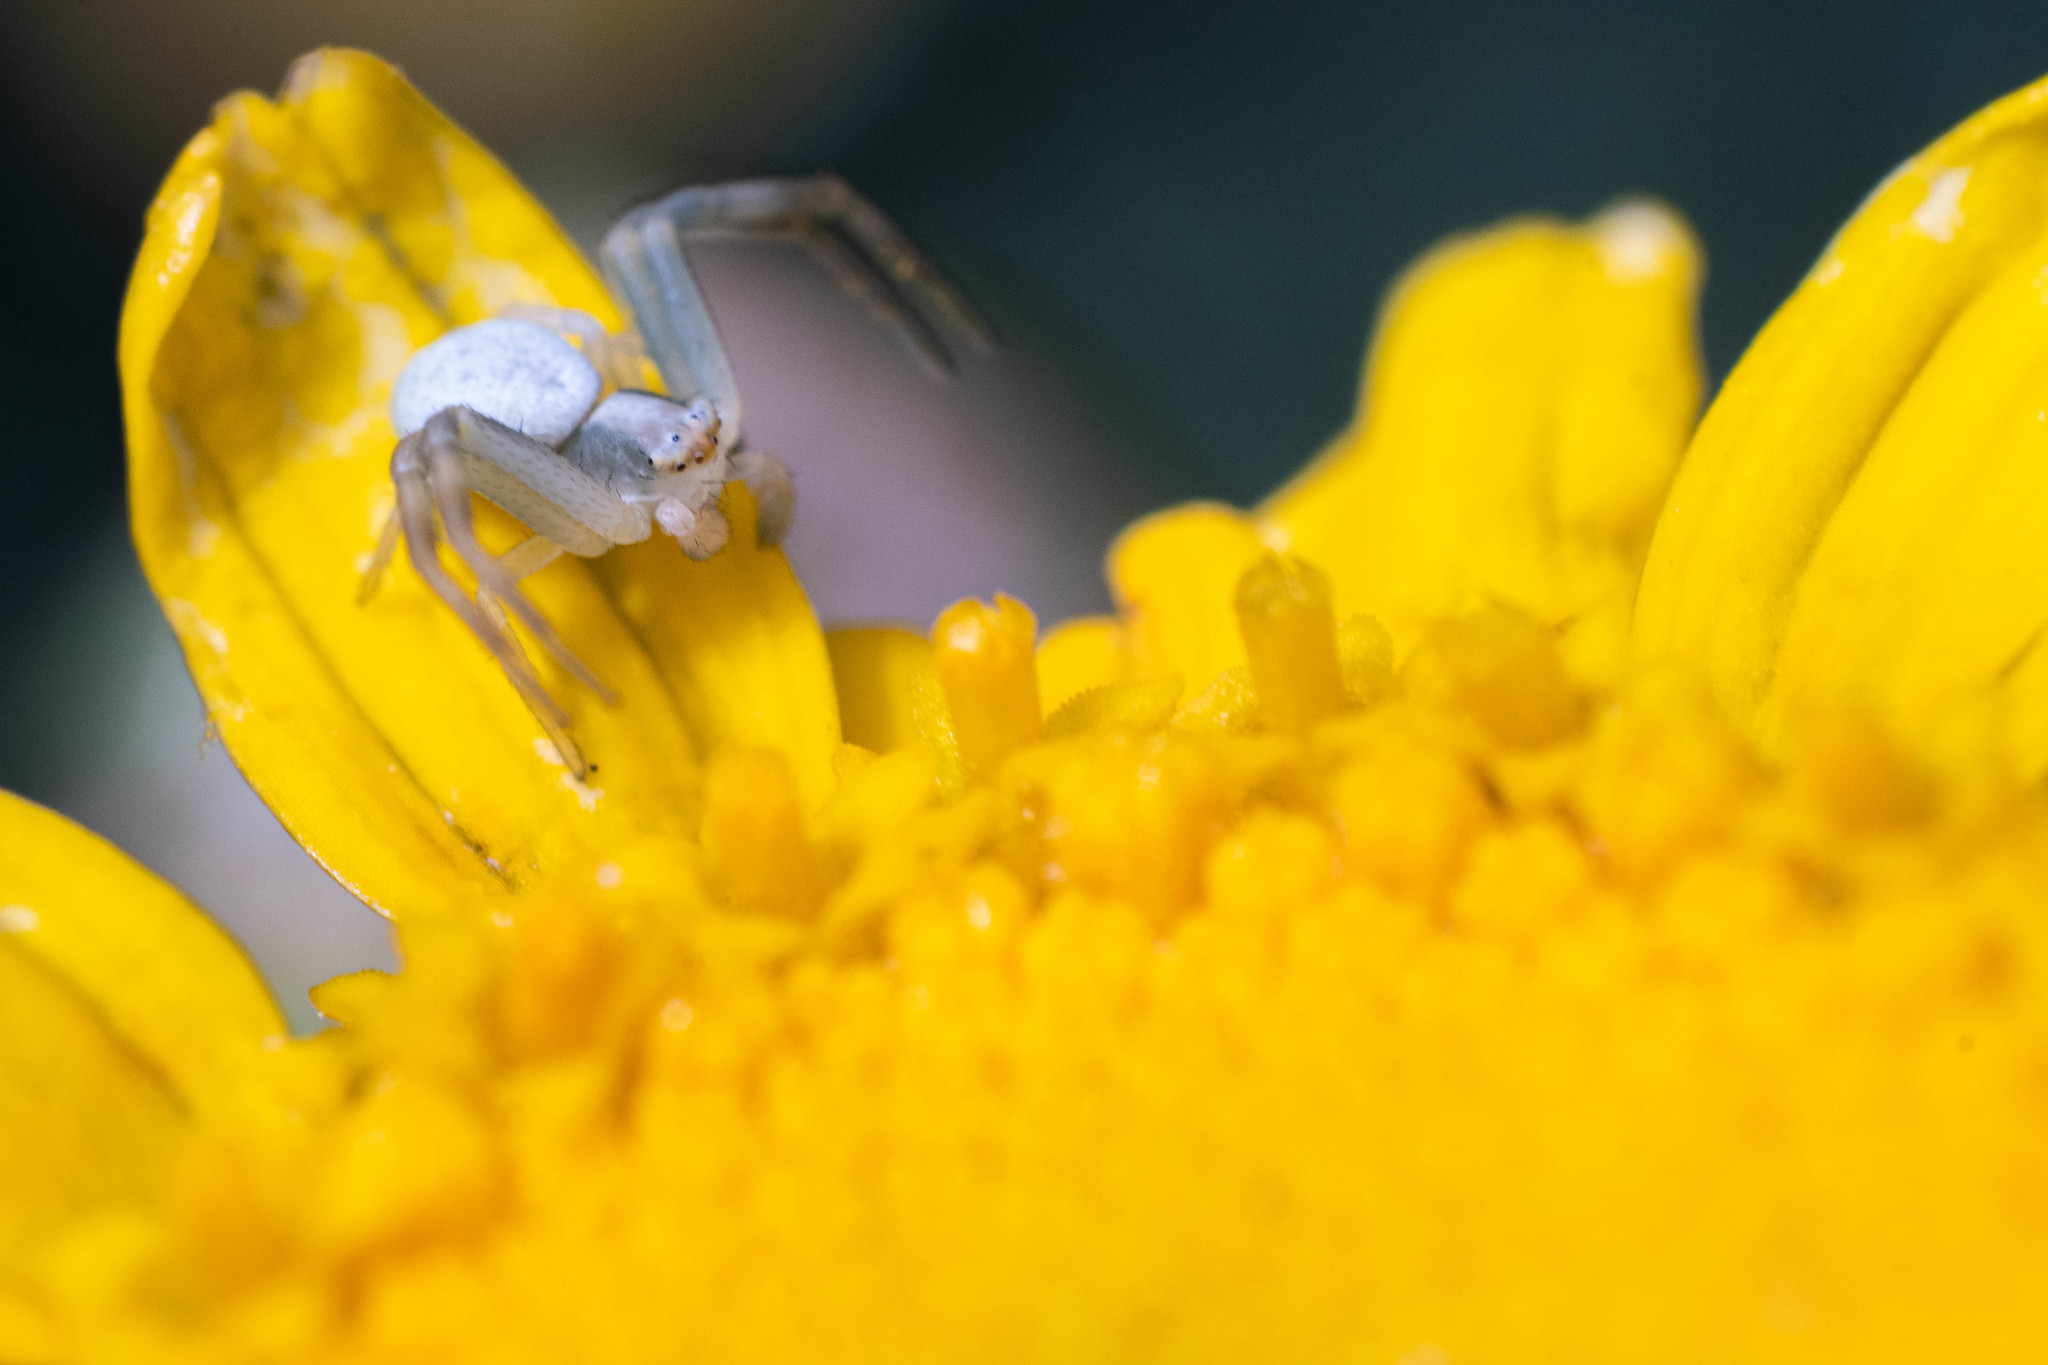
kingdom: Animalia
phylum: Arthropoda
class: Arachnida
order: Araneae
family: Thomisidae
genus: Misumena
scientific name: Misumena vatia
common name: Goldenrod crab spider
